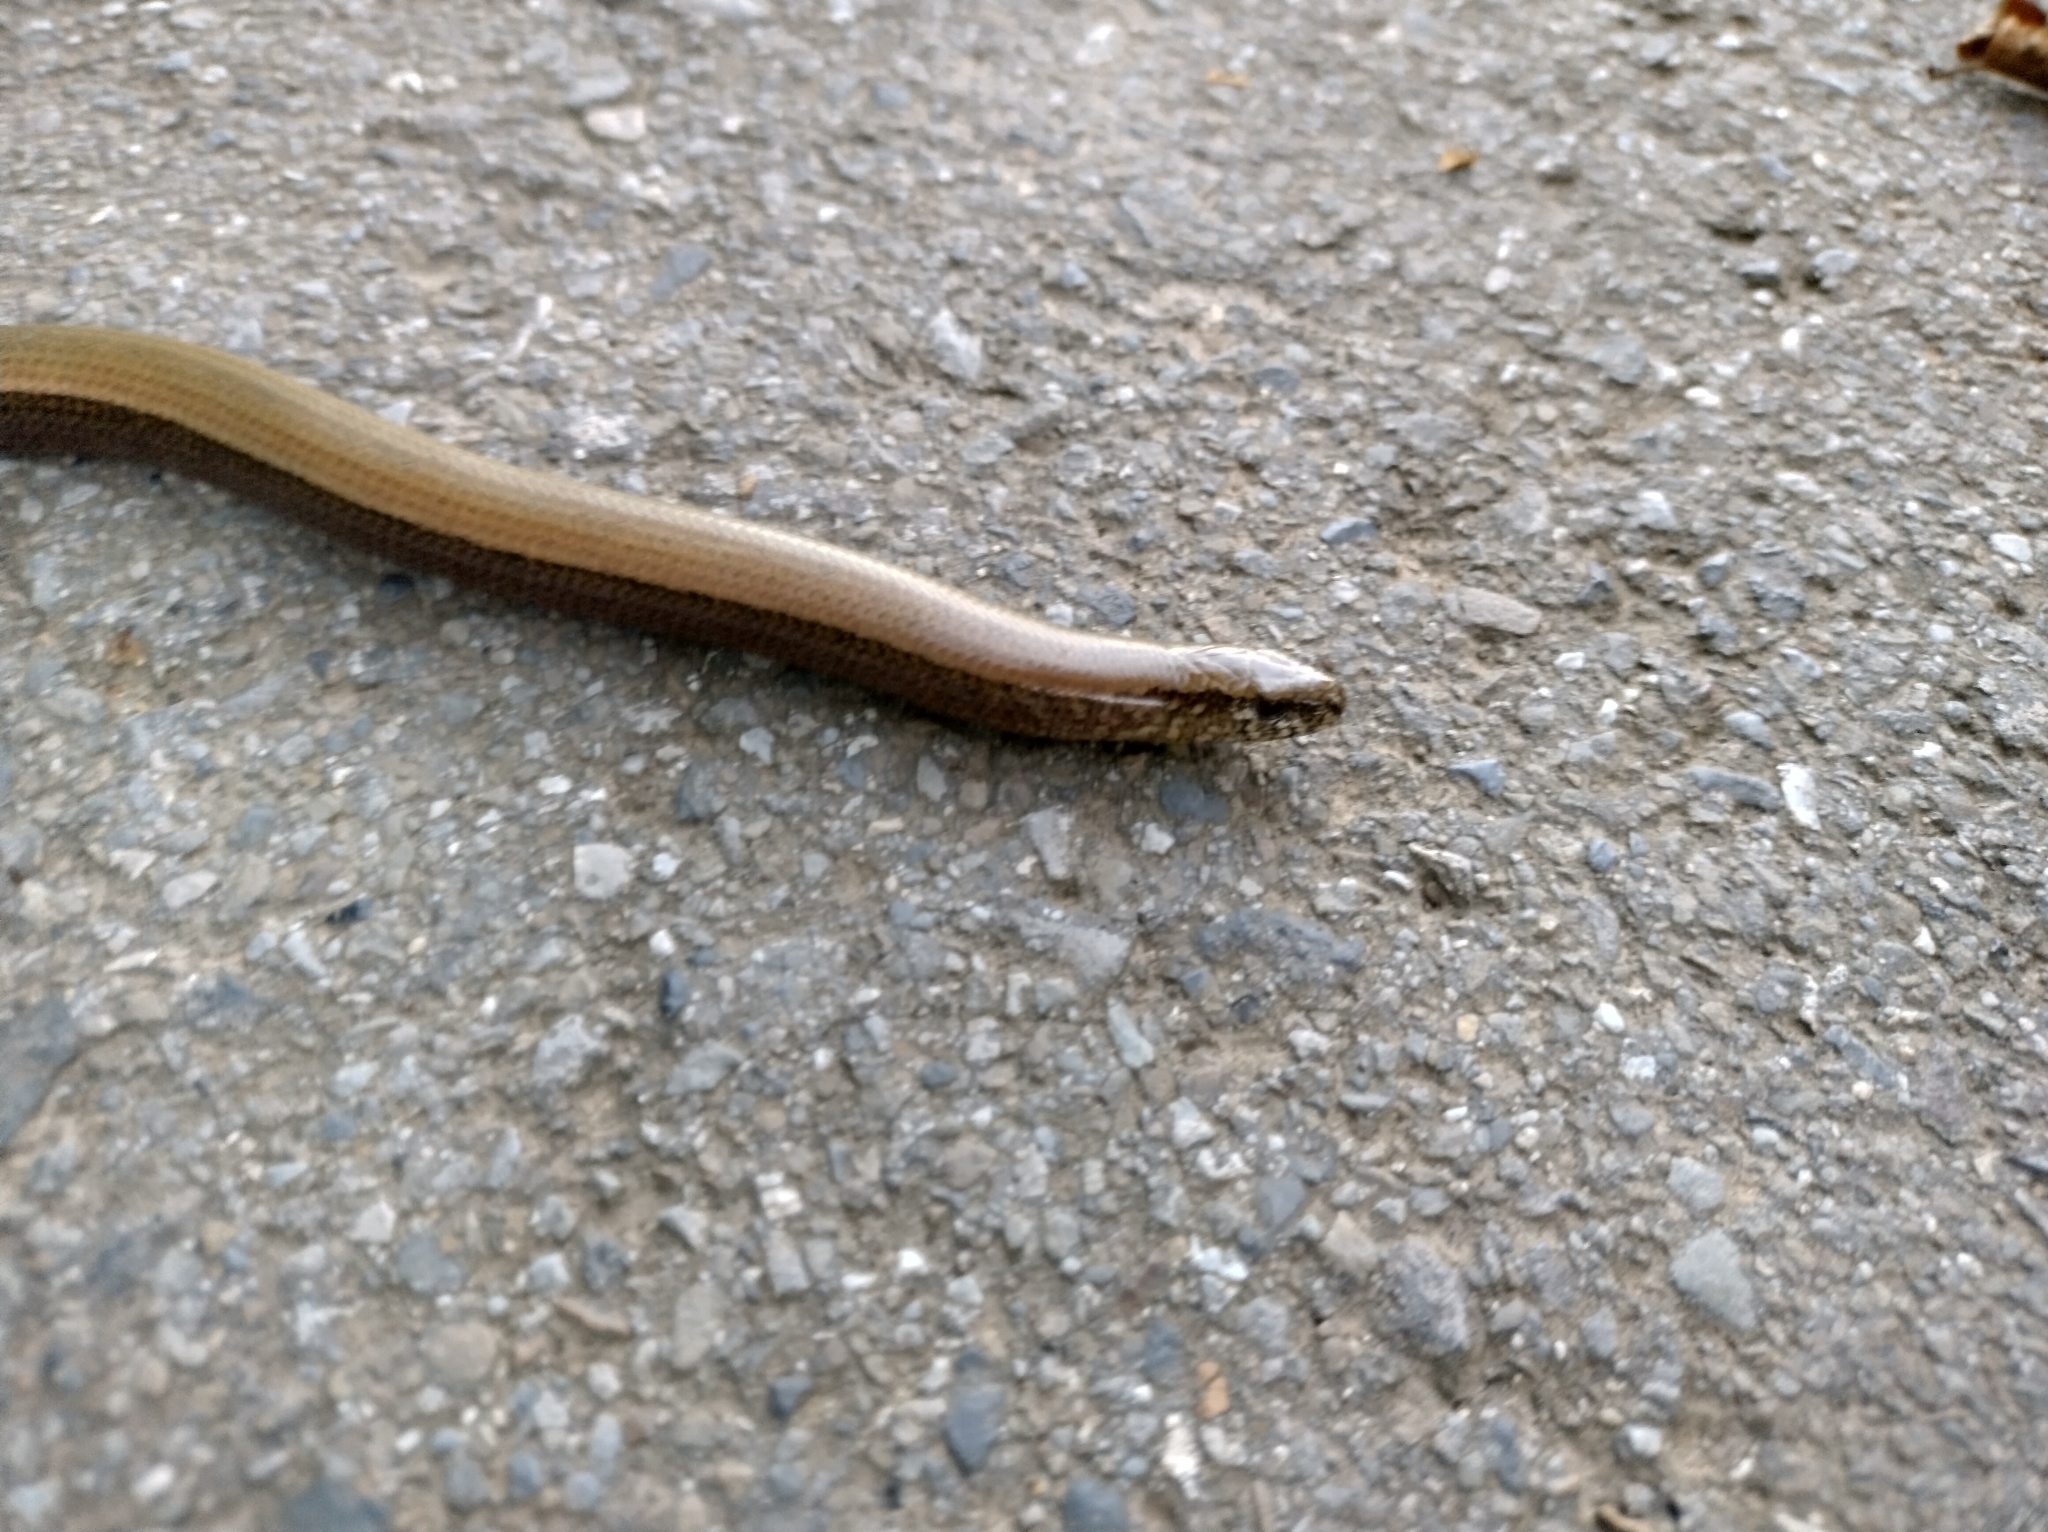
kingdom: Animalia
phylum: Chordata
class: Squamata
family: Anguidae
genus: Anguis
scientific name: Anguis fragilis
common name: Slow worm
